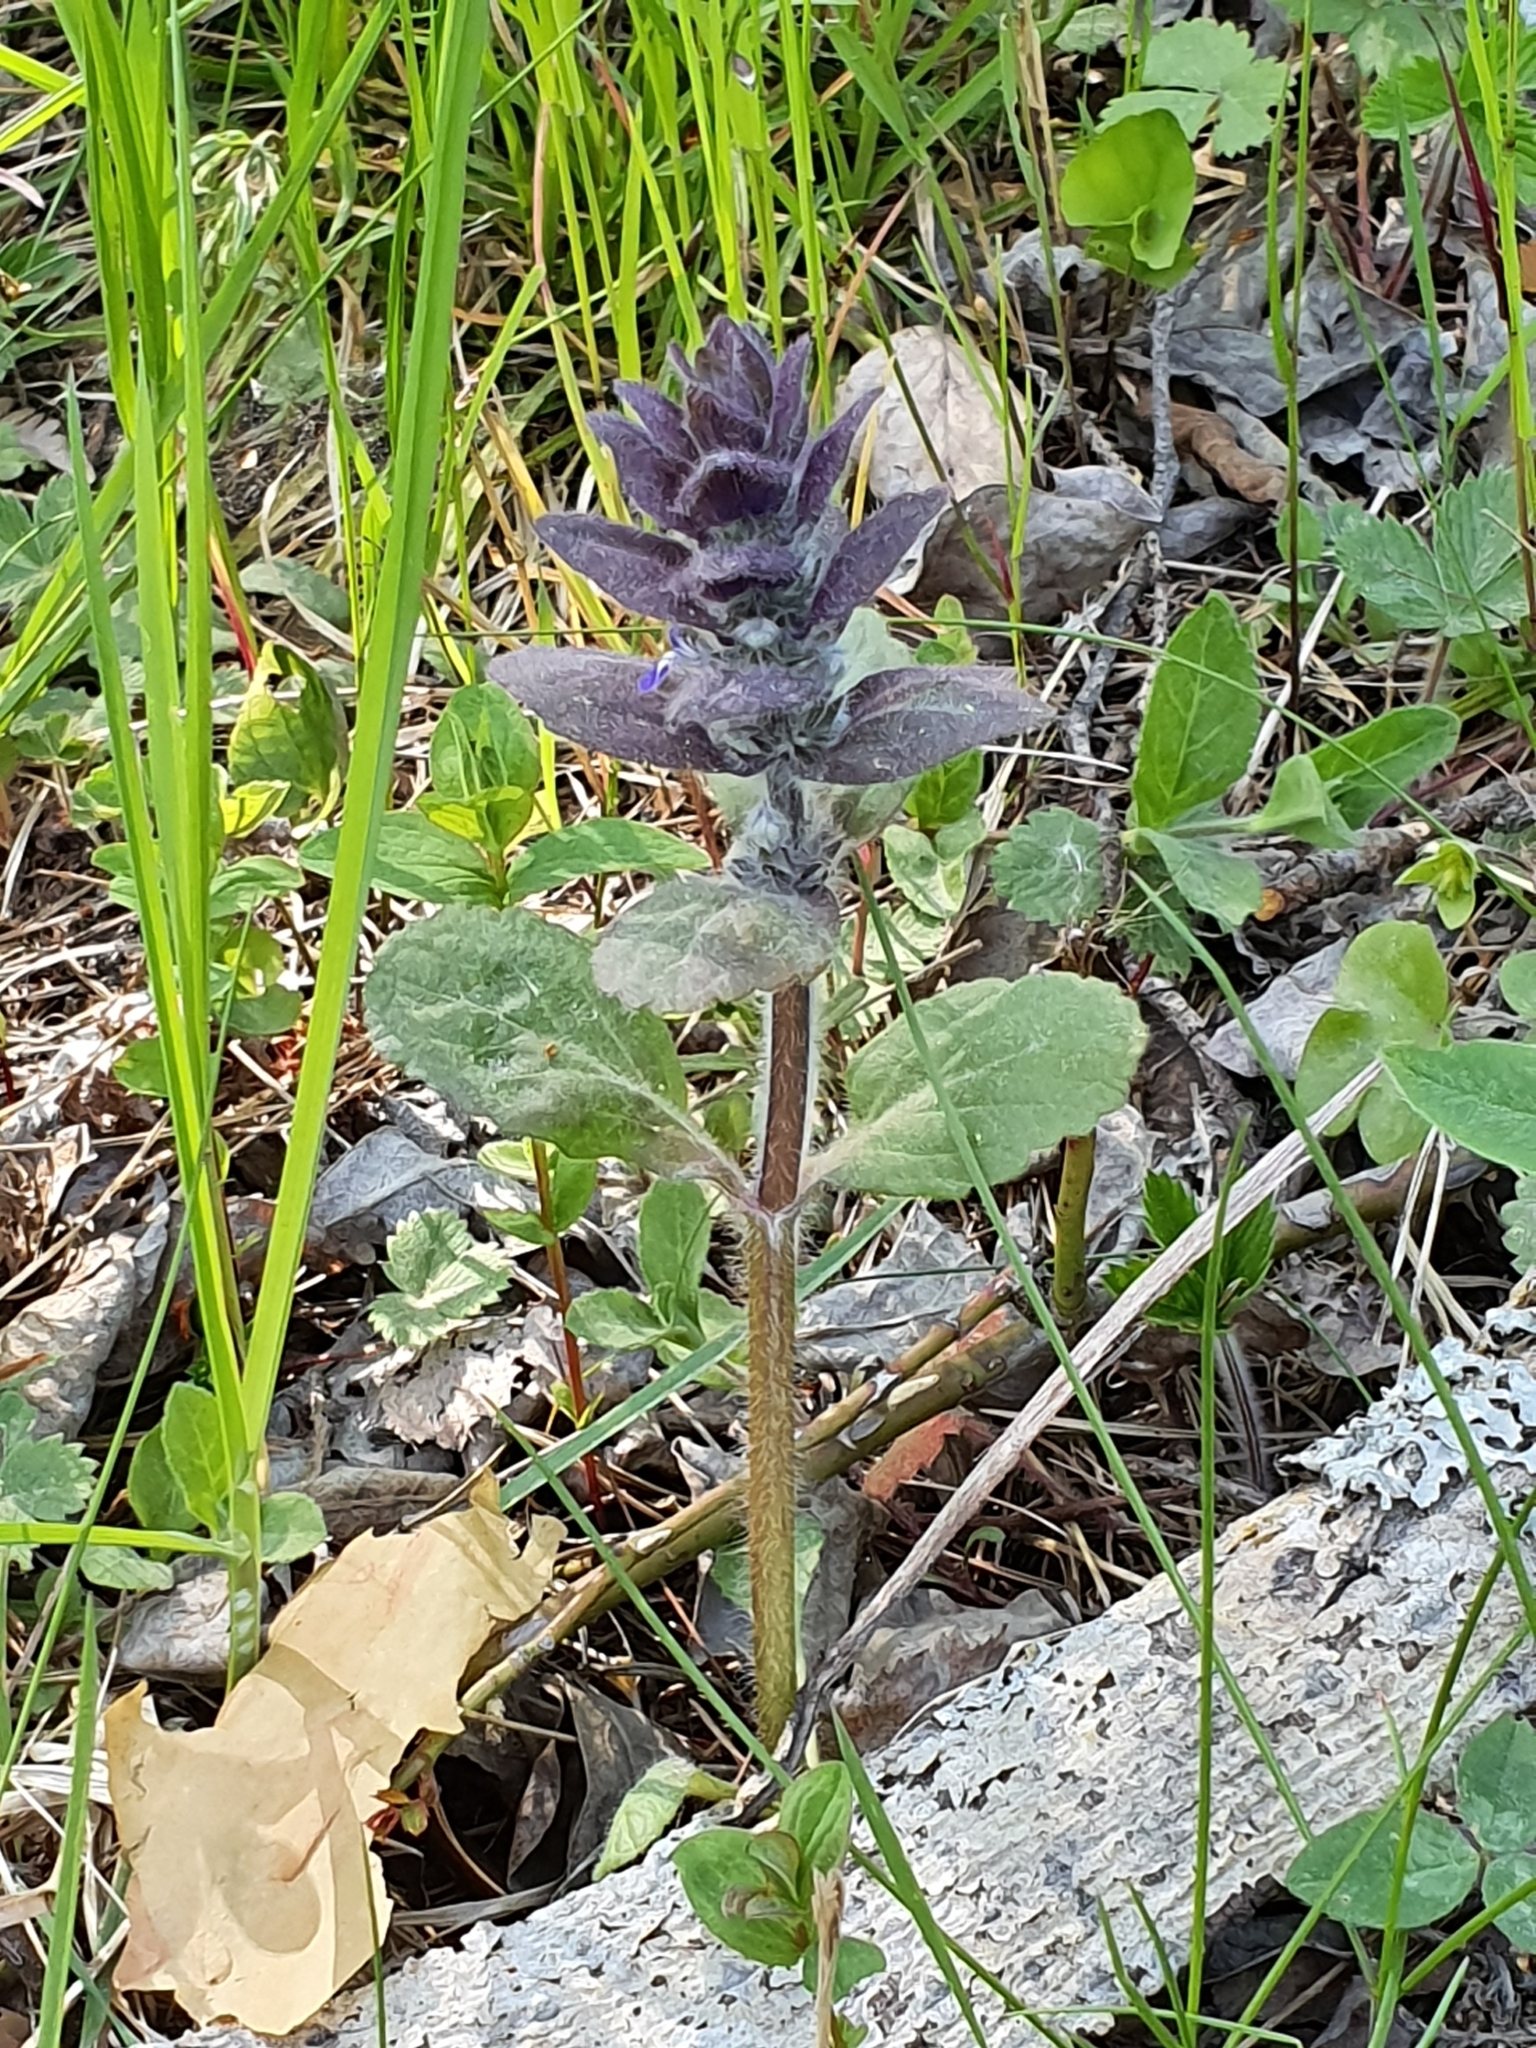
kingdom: Plantae
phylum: Tracheophyta
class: Magnoliopsida
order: Lamiales
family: Lamiaceae
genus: Ajuga
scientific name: Ajuga pyramidalis
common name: Pyramid bugle
